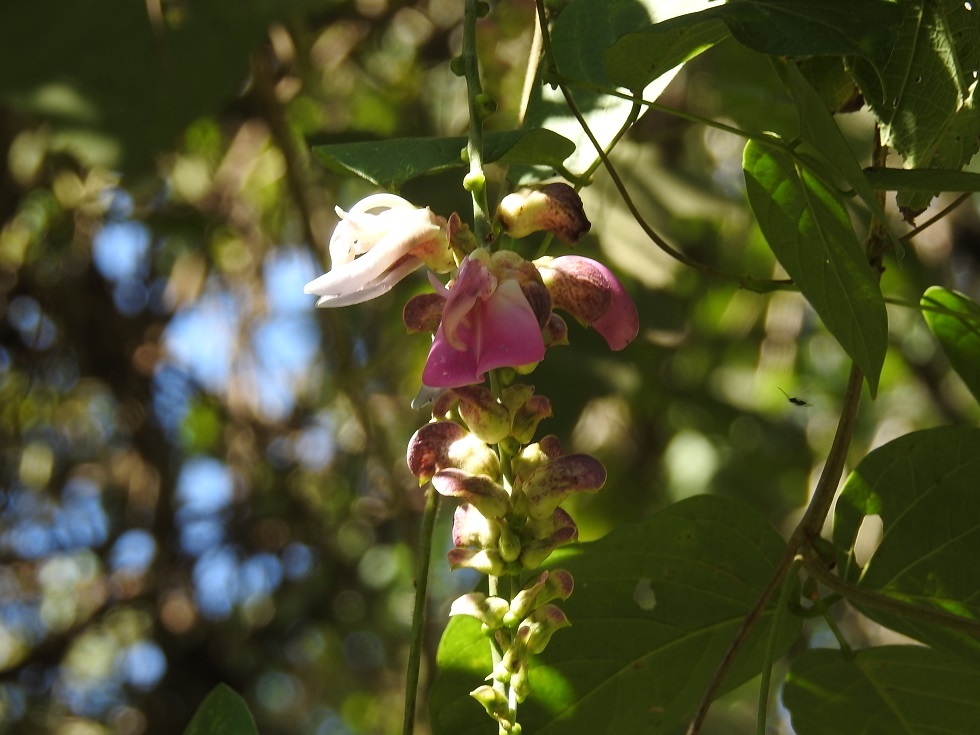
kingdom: Plantae
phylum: Tracheophyta
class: Magnoliopsida
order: Fabales
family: Fabaceae
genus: Canavalia
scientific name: Canavalia oxyphylla
